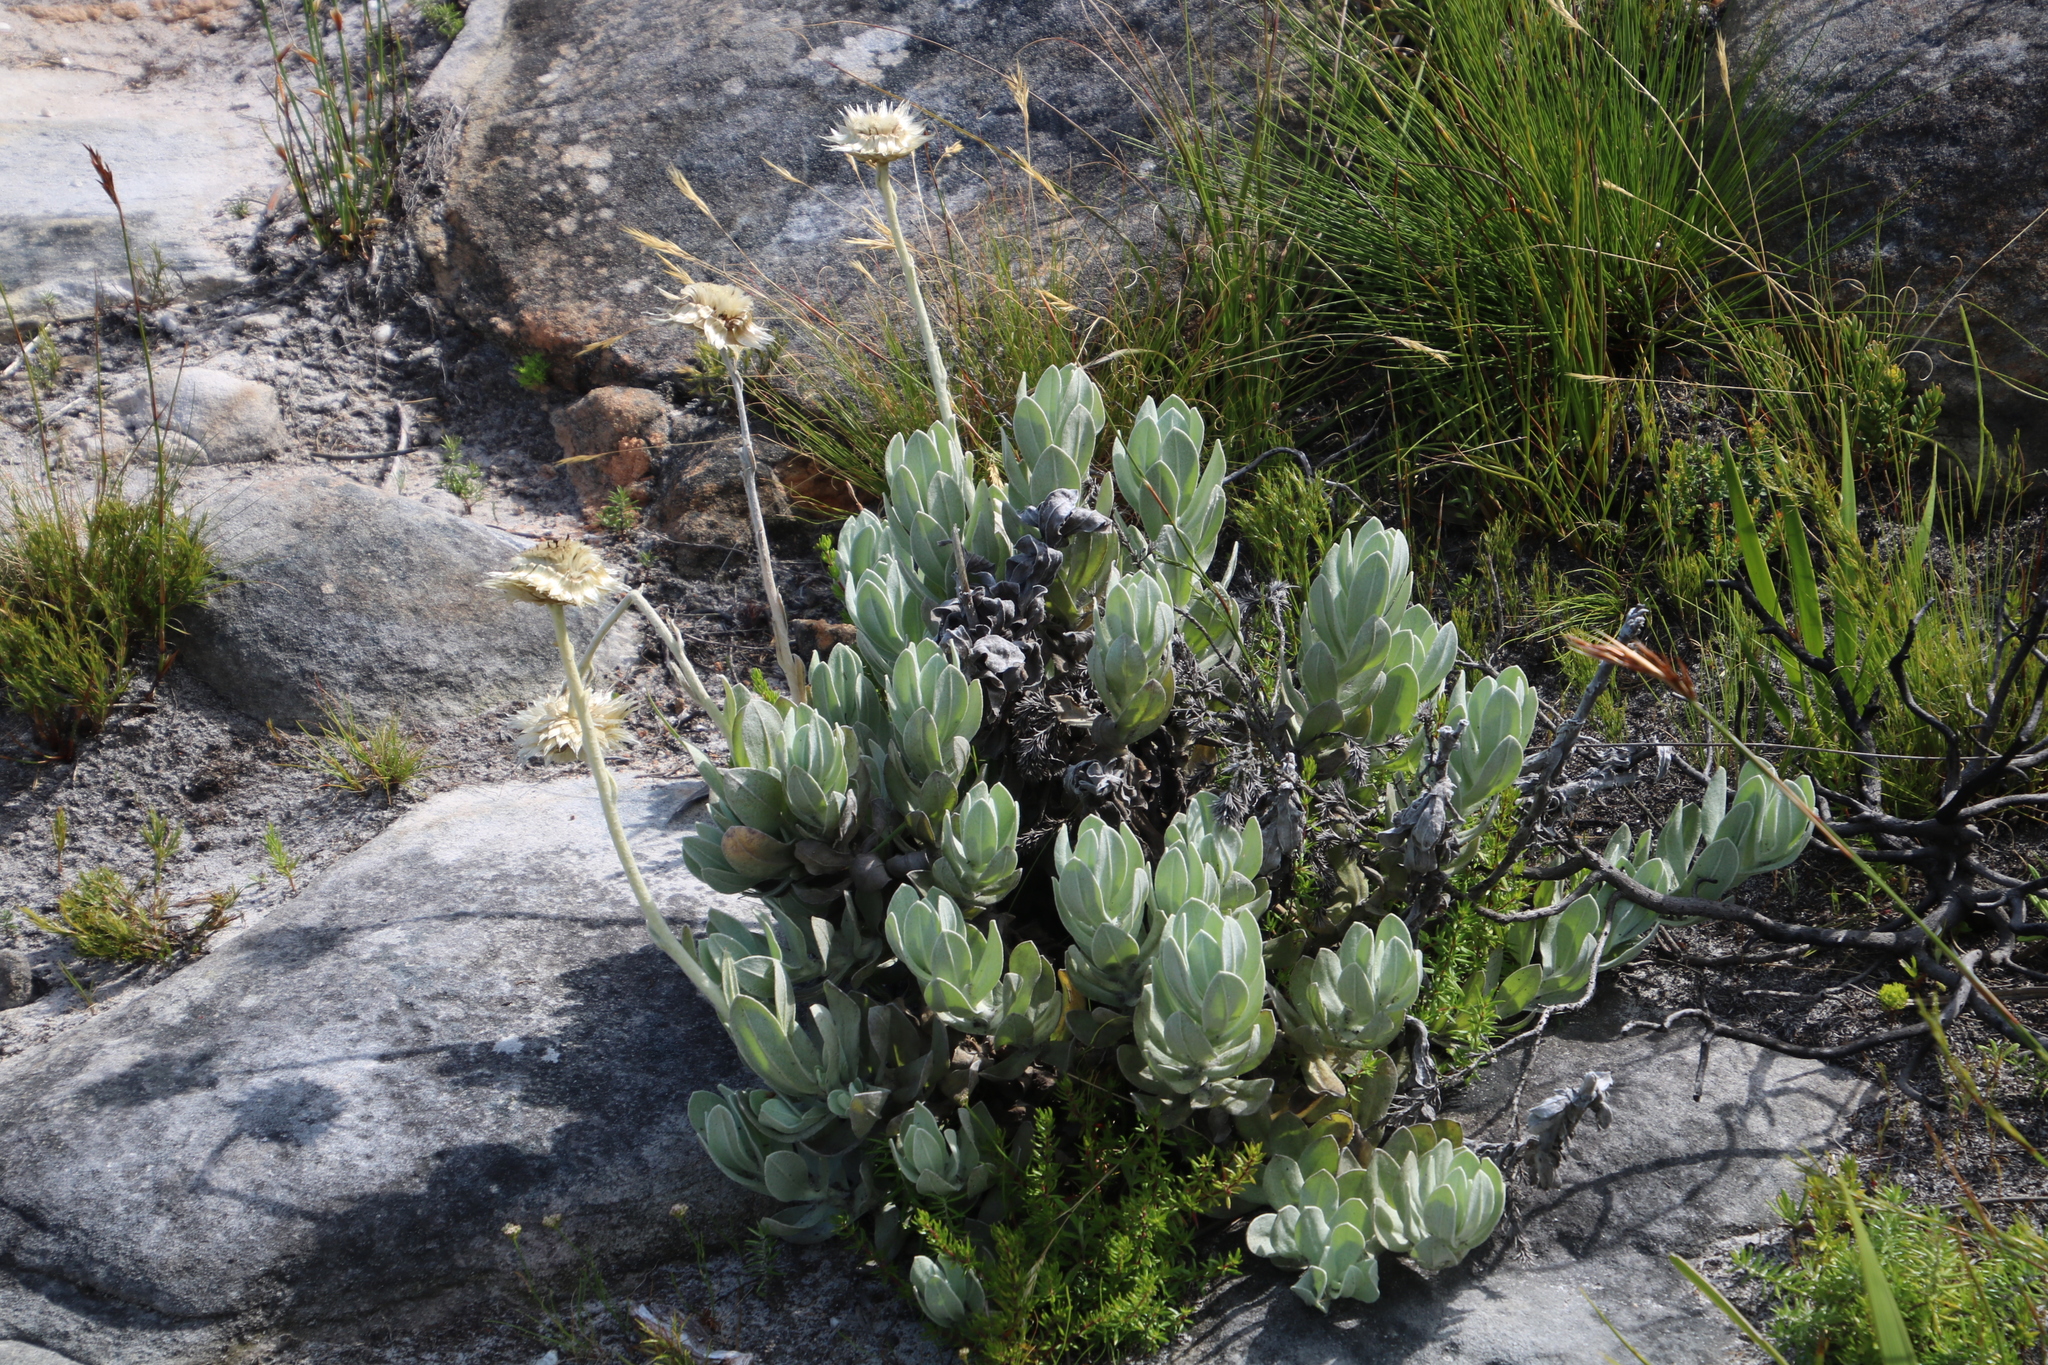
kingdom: Plantae
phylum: Tracheophyta
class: Magnoliopsida
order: Asterales
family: Asteraceae
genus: Syncarpha
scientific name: Syncarpha speciosissima
